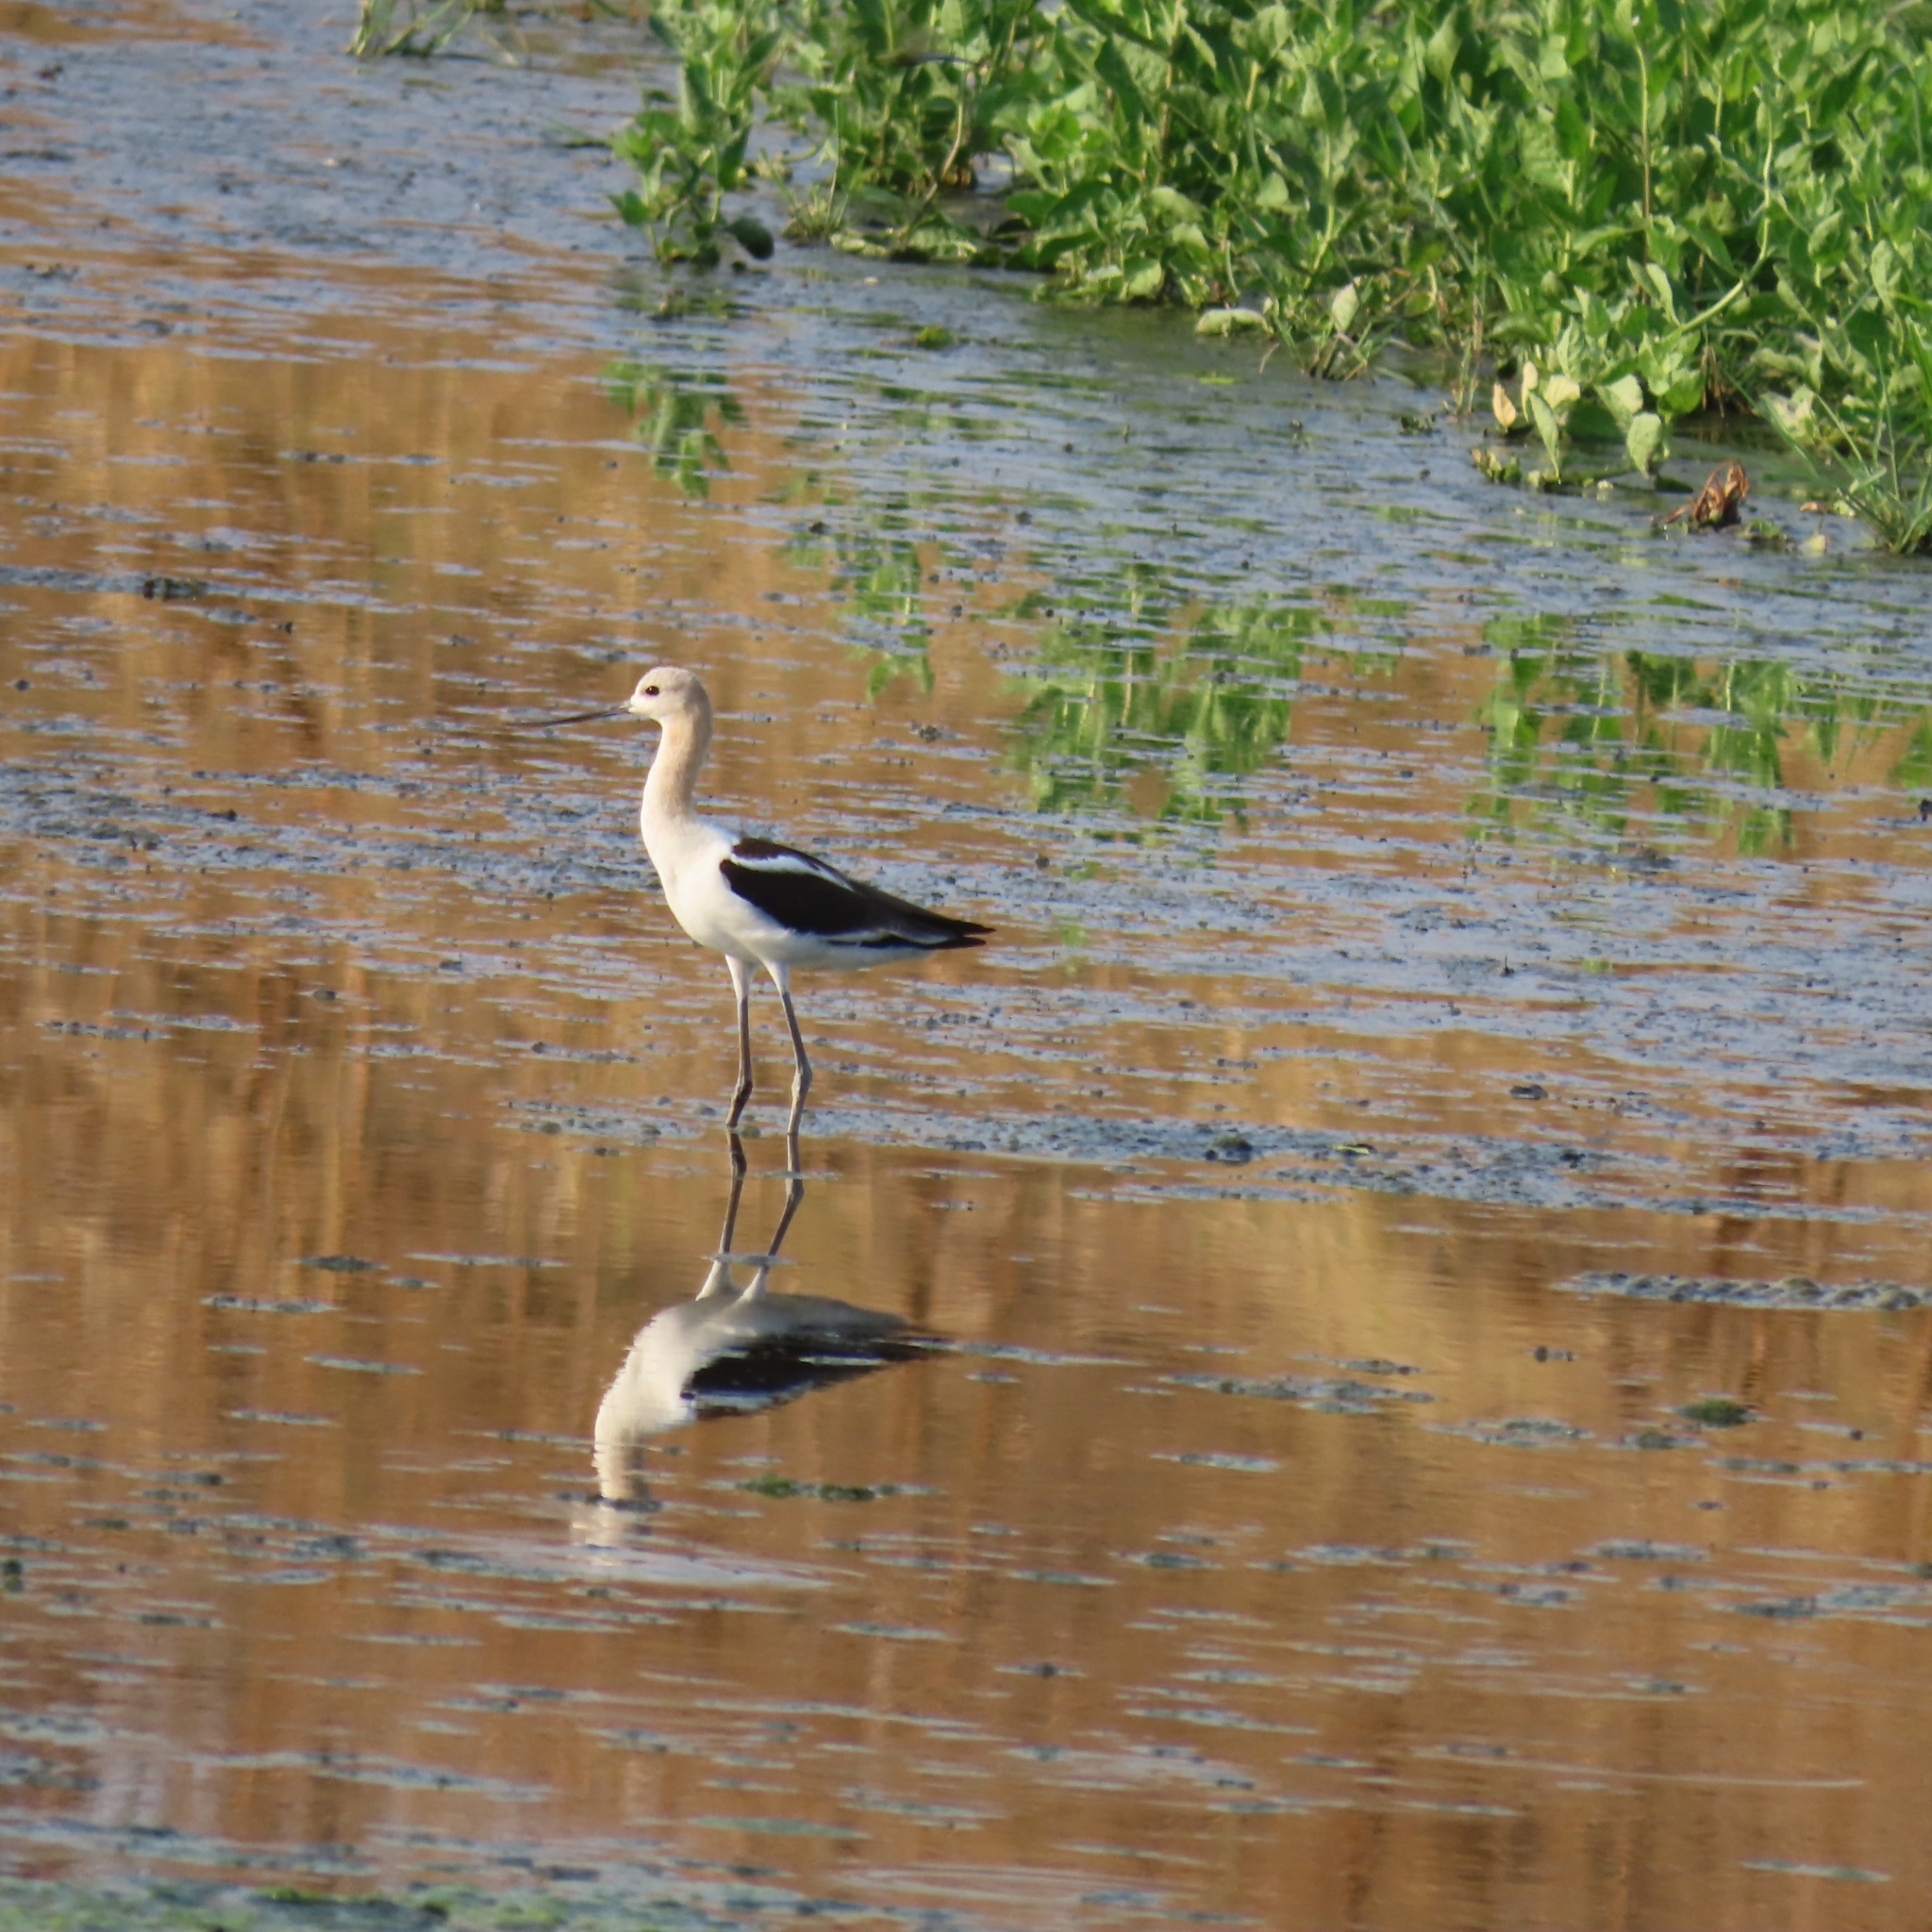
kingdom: Animalia
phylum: Chordata
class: Aves
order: Charadriiformes
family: Recurvirostridae
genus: Recurvirostra
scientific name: Recurvirostra americana
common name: American avocet
